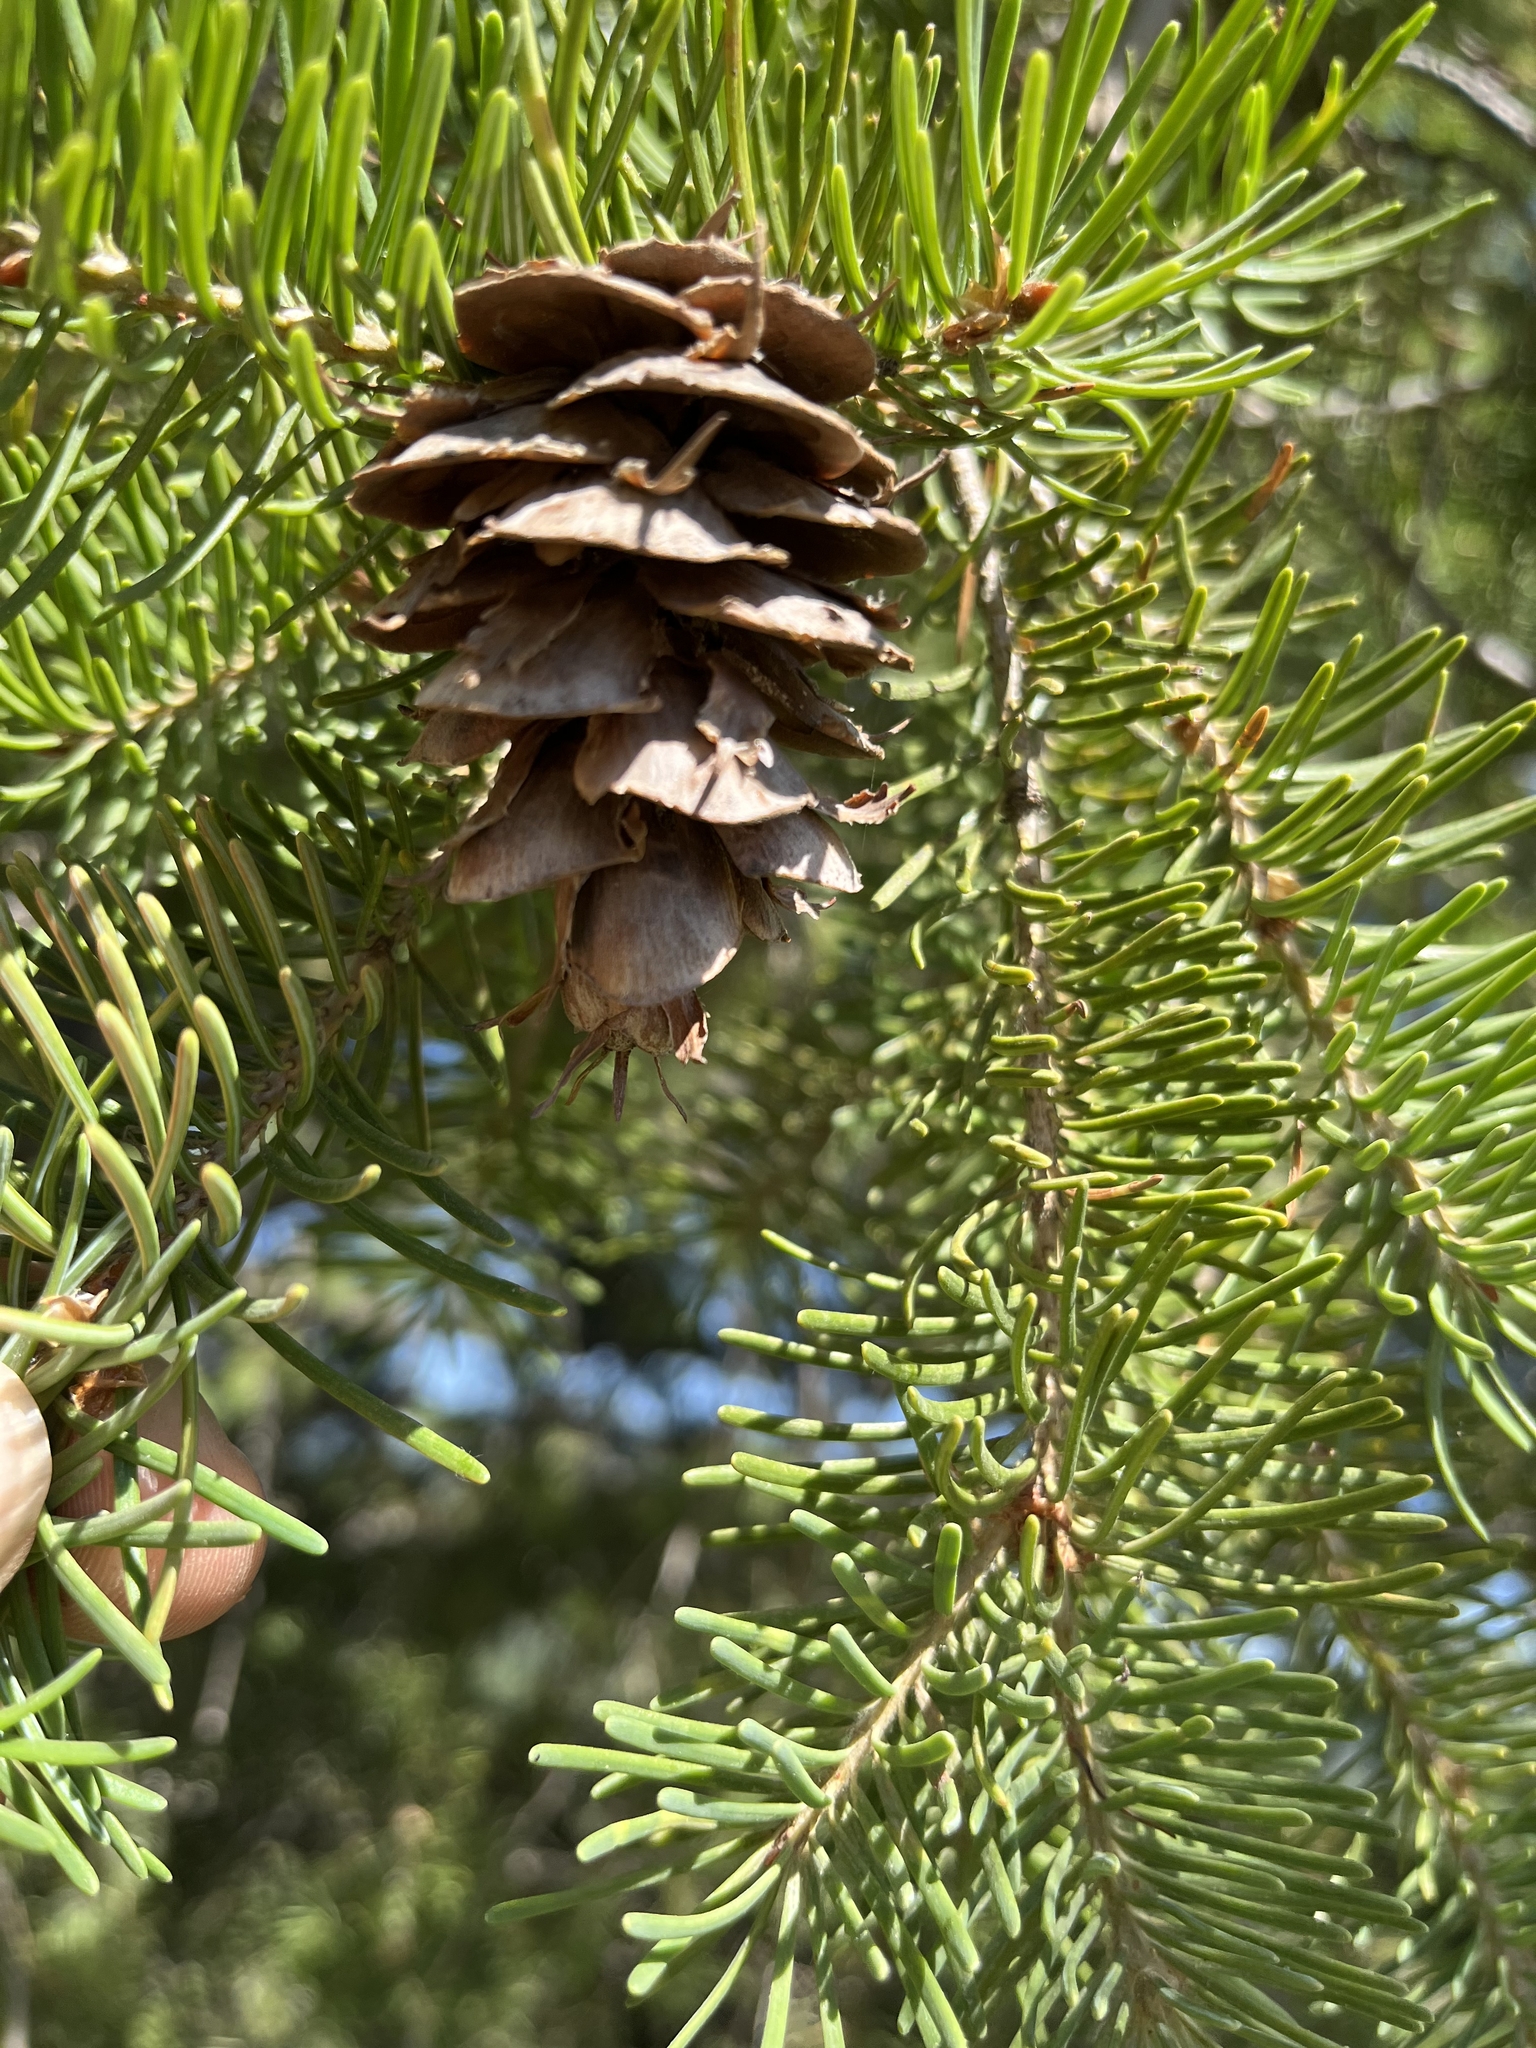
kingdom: Plantae
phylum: Tracheophyta
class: Pinopsida
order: Pinales
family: Pinaceae
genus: Pseudotsuga
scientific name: Pseudotsuga menziesii
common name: Douglas fir
